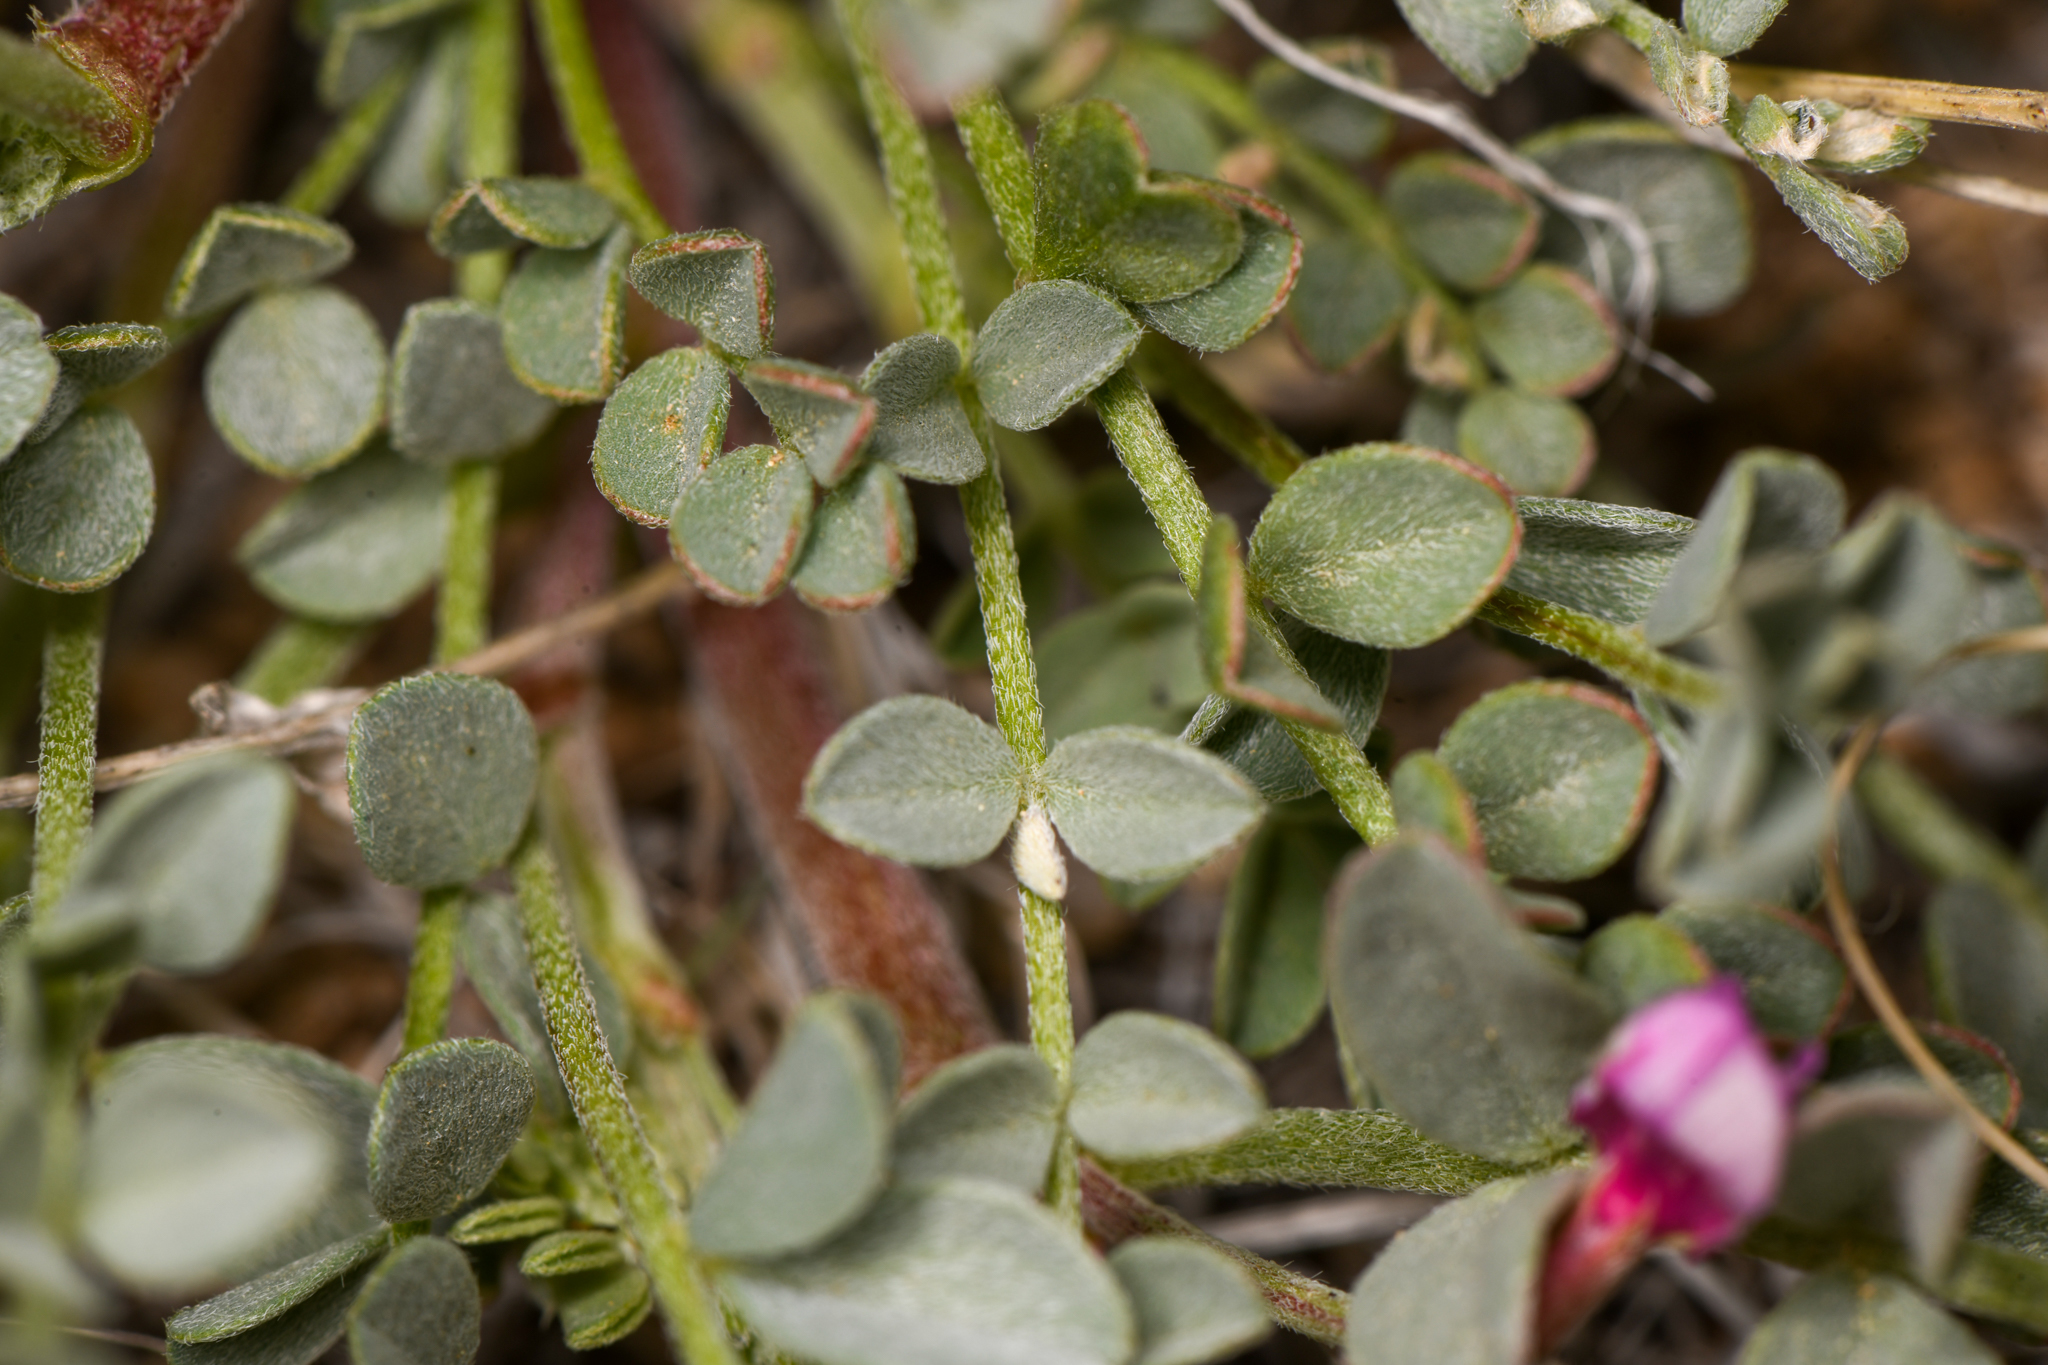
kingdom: Plantae
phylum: Tracheophyta
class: Magnoliopsida
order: Fabales
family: Fabaceae
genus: Astragalus
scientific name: Astragalus lentiginosus
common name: Freckled milkvetch
